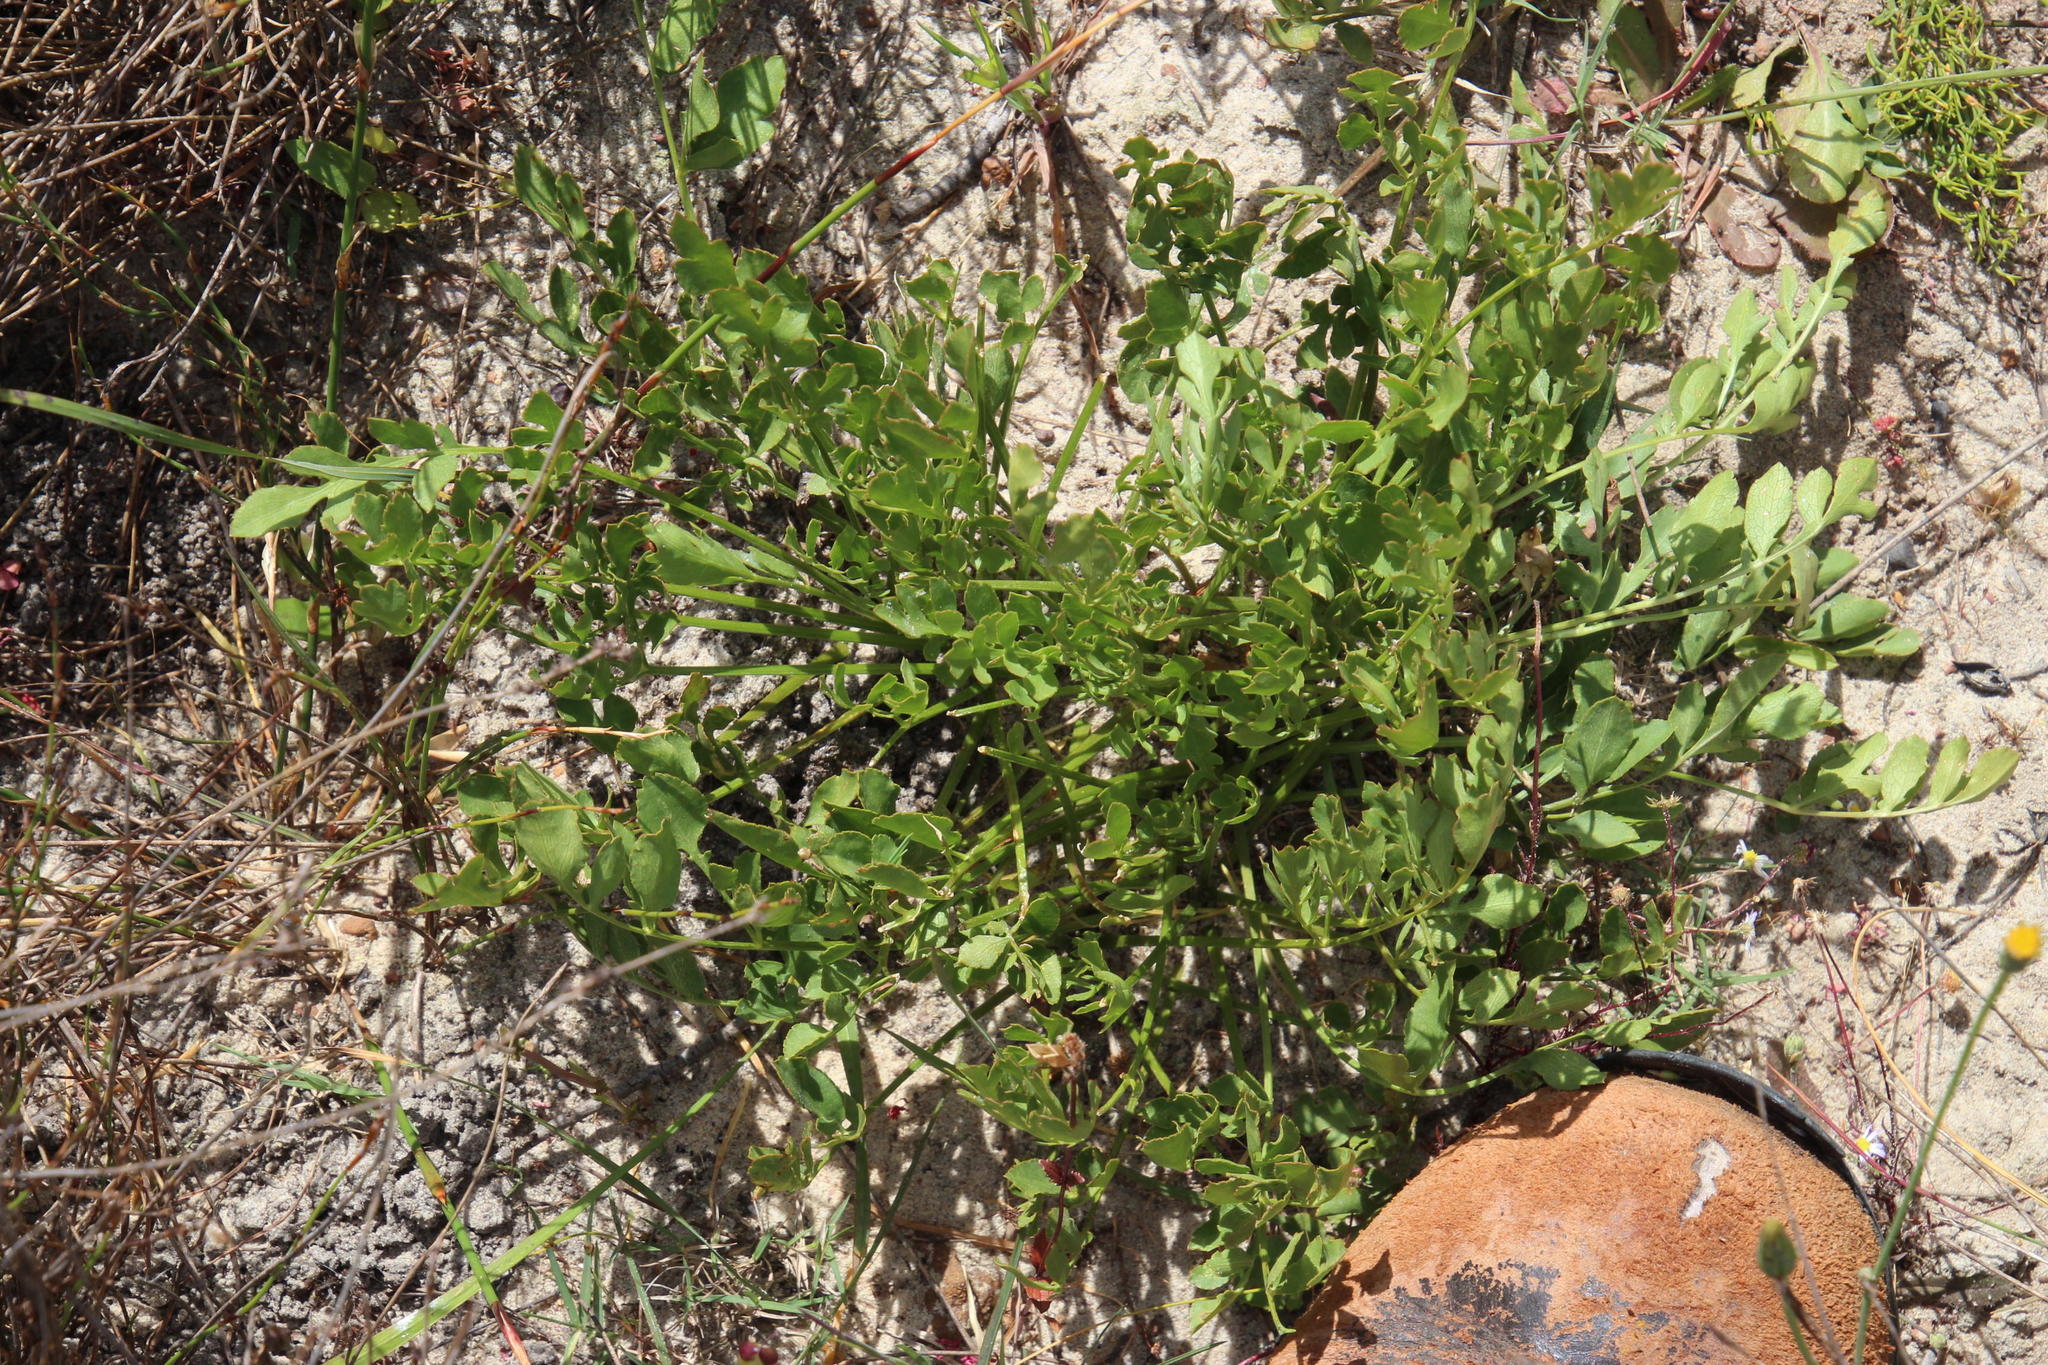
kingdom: Plantae
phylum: Tracheophyta
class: Magnoliopsida
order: Apiales
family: Apiaceae
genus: Lichtensteinia
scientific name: Lichtensteinia obscura
